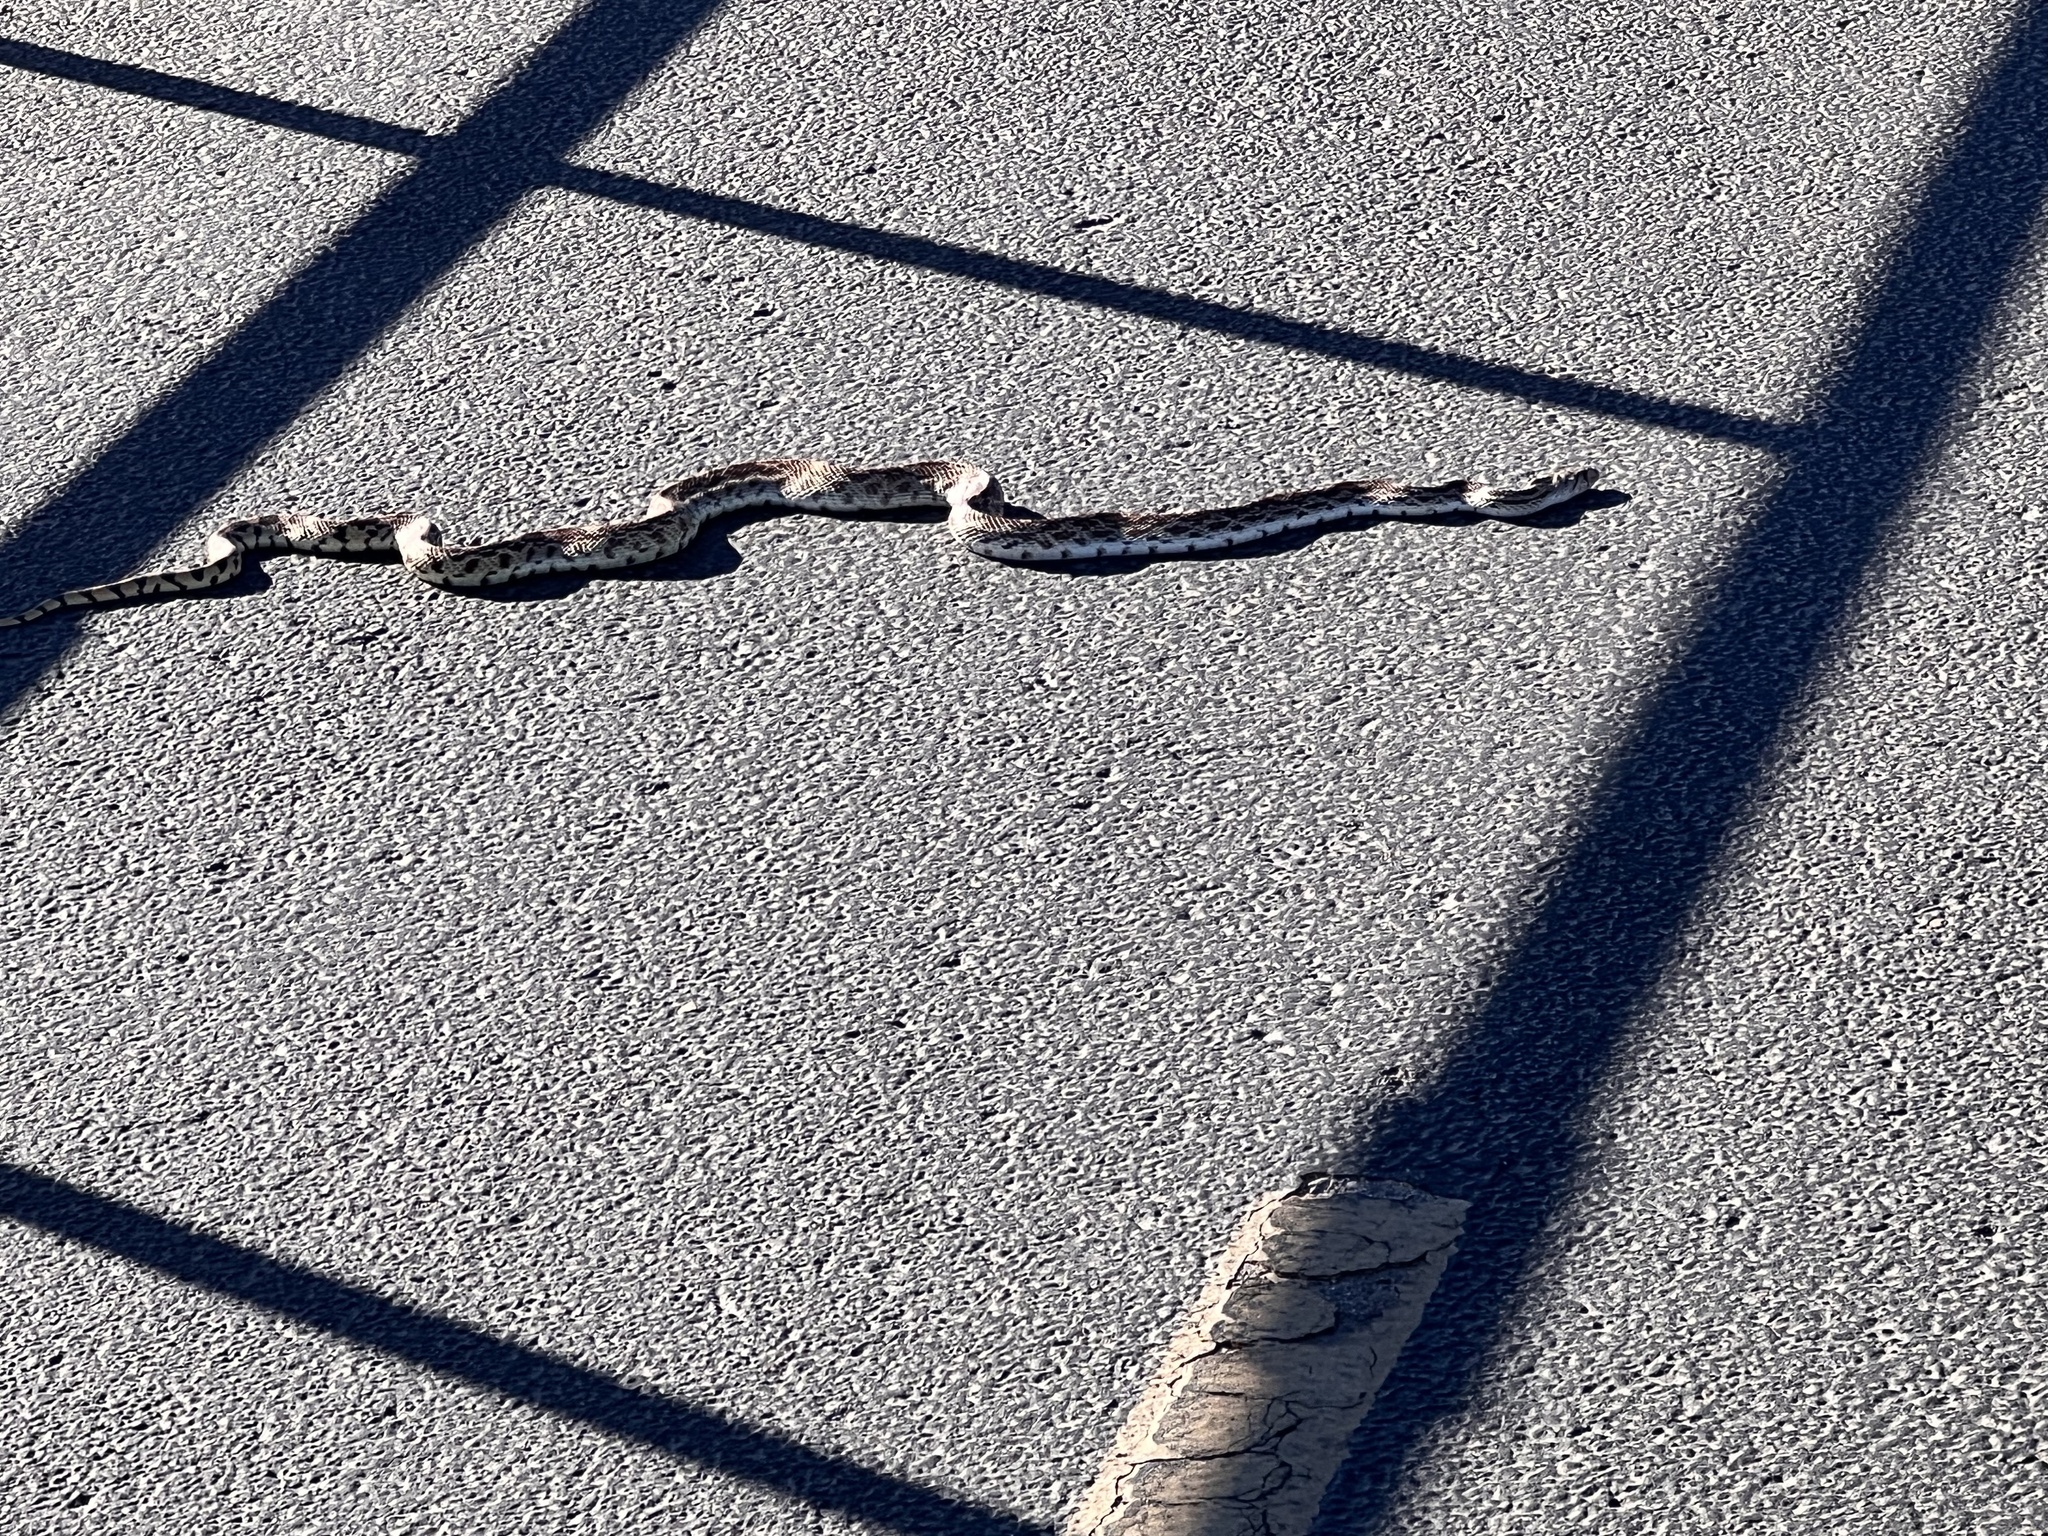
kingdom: Animalia
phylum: Chordata
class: Squamata
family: Colubridae
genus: Pituophis
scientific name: Pituophis catenifer
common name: Gopher snake
